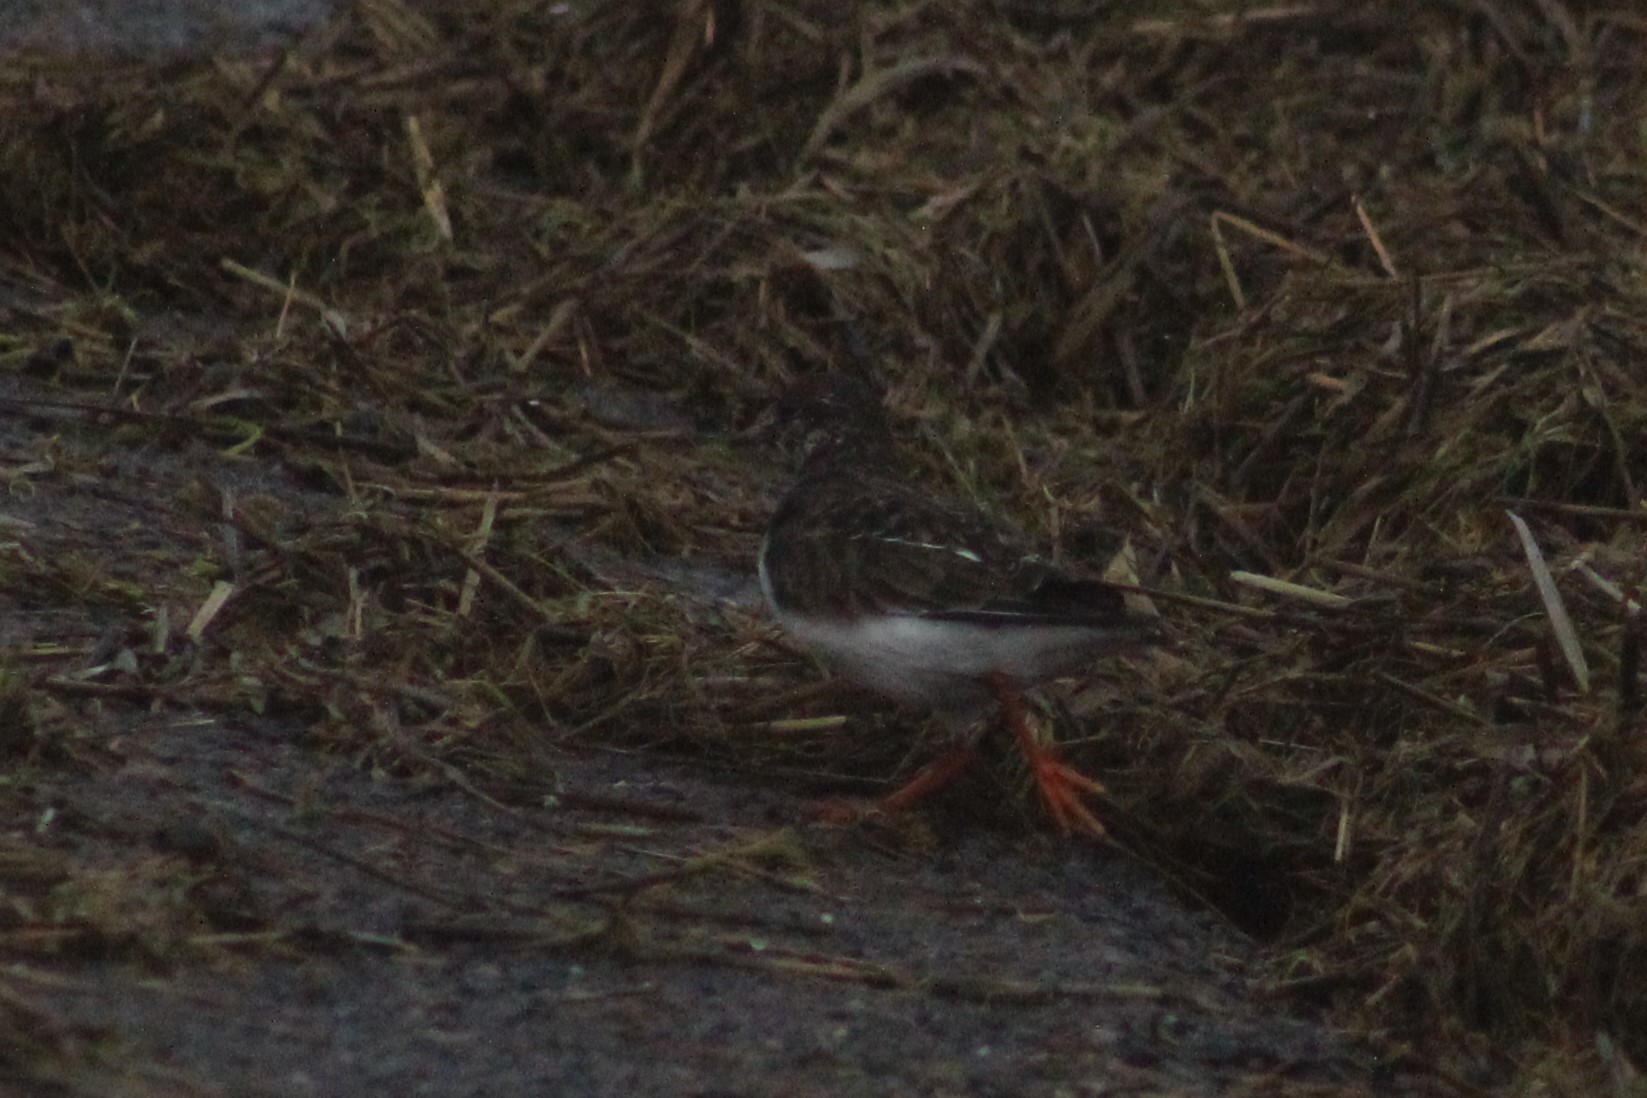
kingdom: Animalia
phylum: Chordata
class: Aves
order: Charadriiformes
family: Scolopacidae
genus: Arenaria
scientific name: Arenaria interpres
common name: Ruddy turnstone
